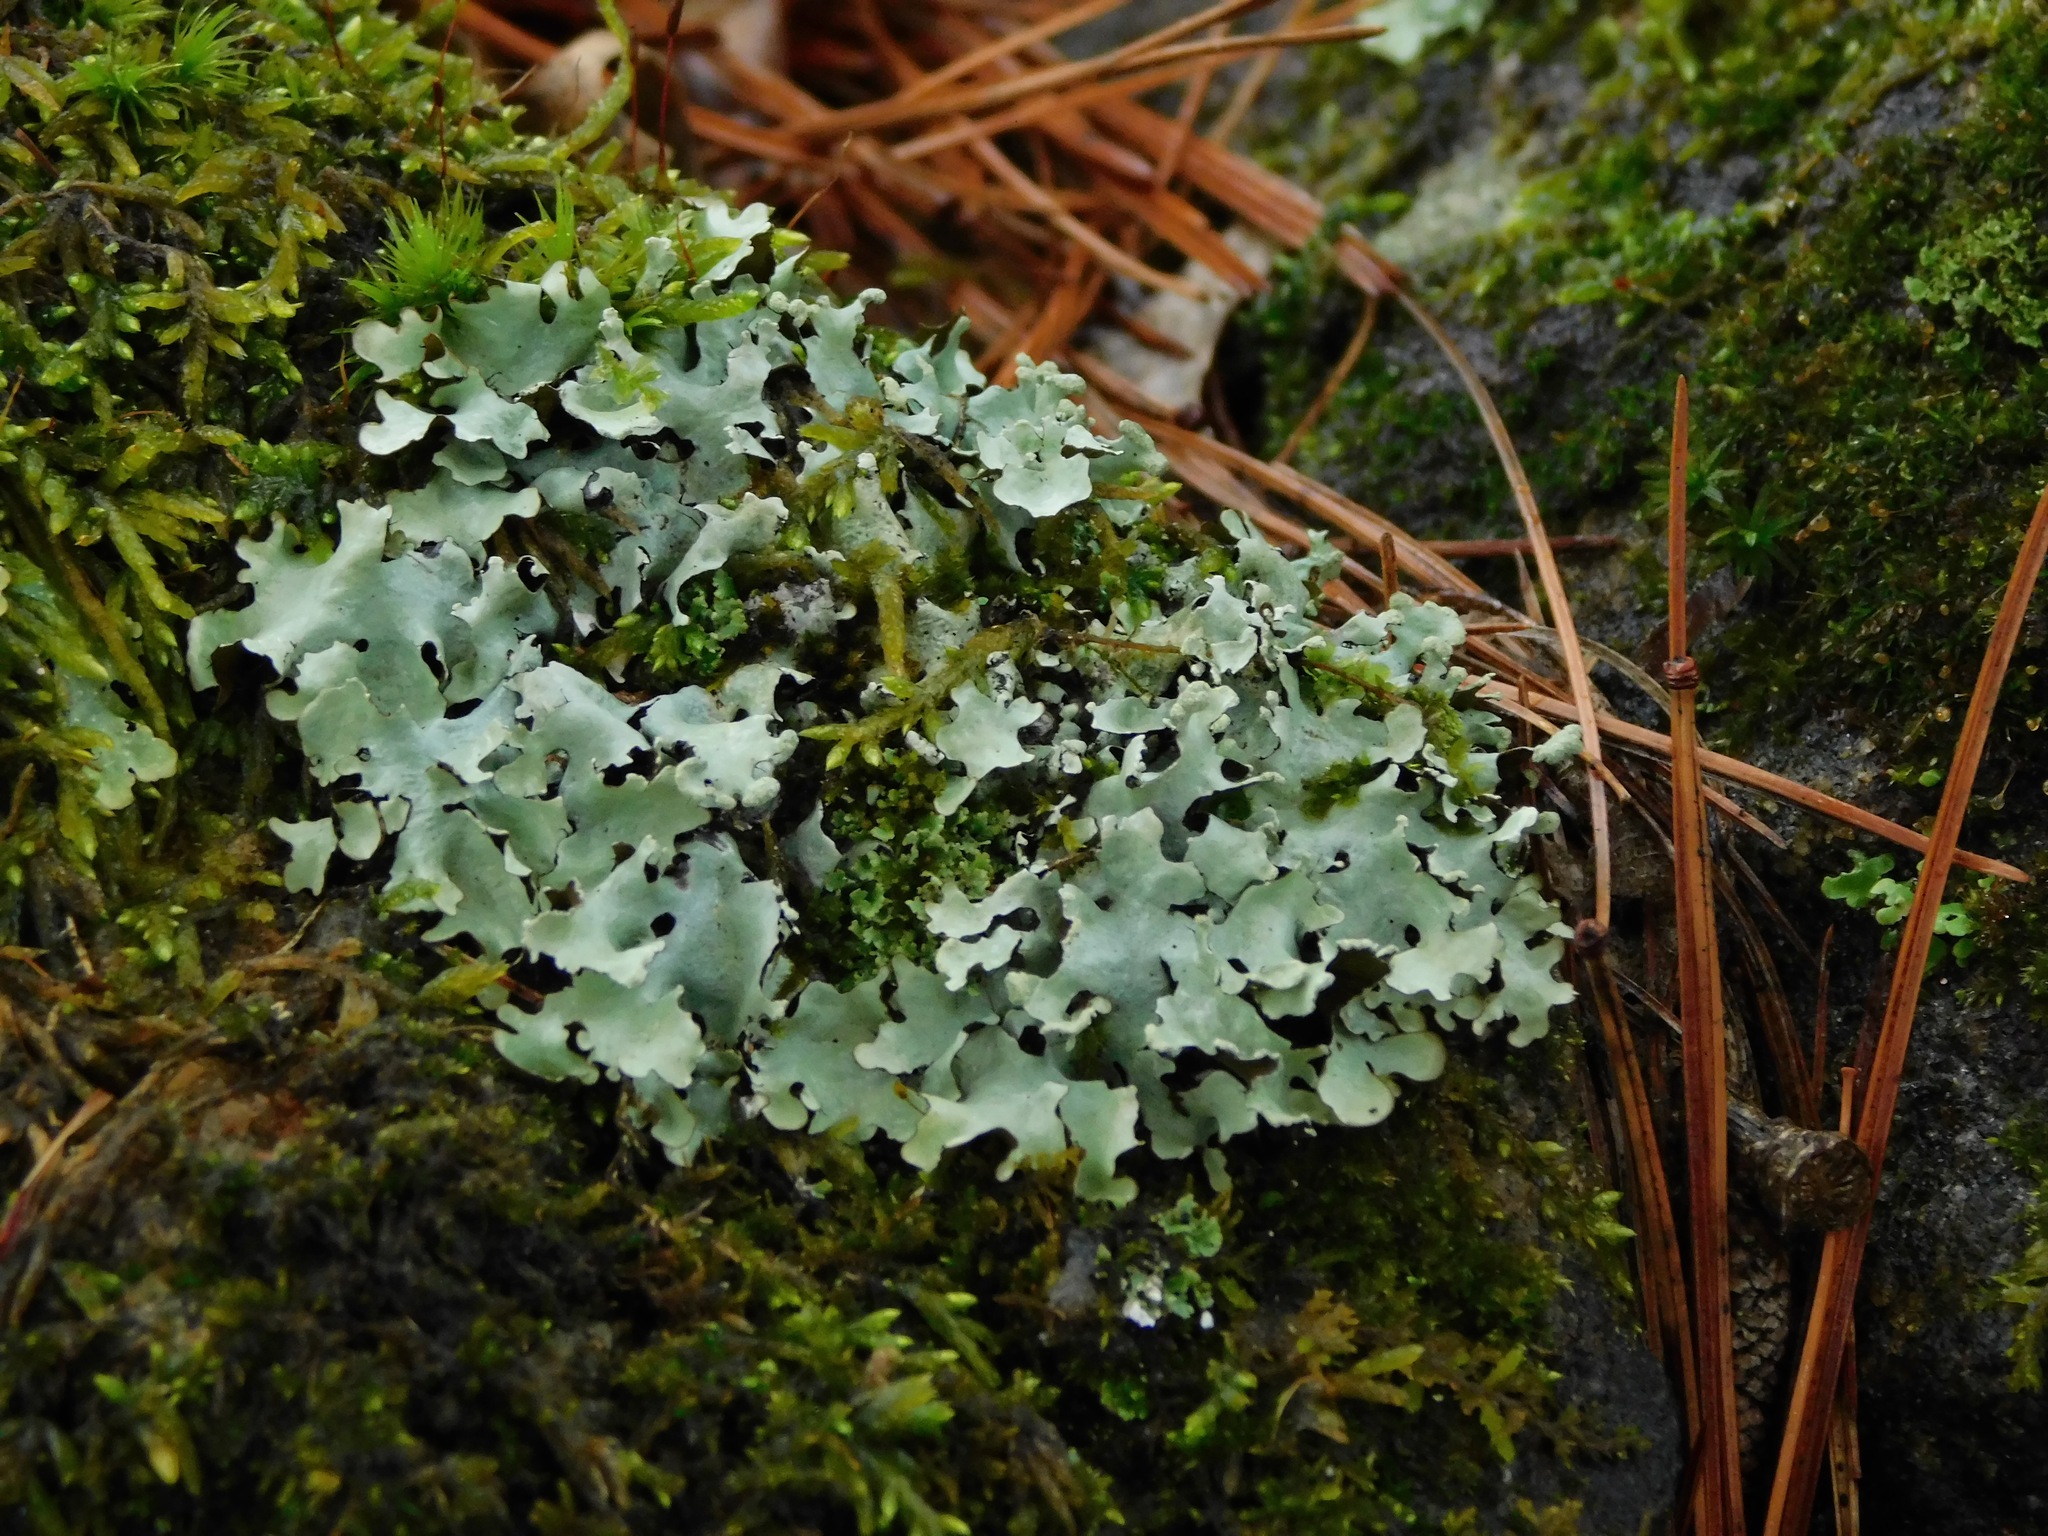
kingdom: Fungi
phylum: Ascomycota
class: Lecanoromycetes
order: Lecanorales
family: Parmeliaceae
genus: Parmotrema
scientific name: Parmotrema reticulatum
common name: Black sheet lichen
